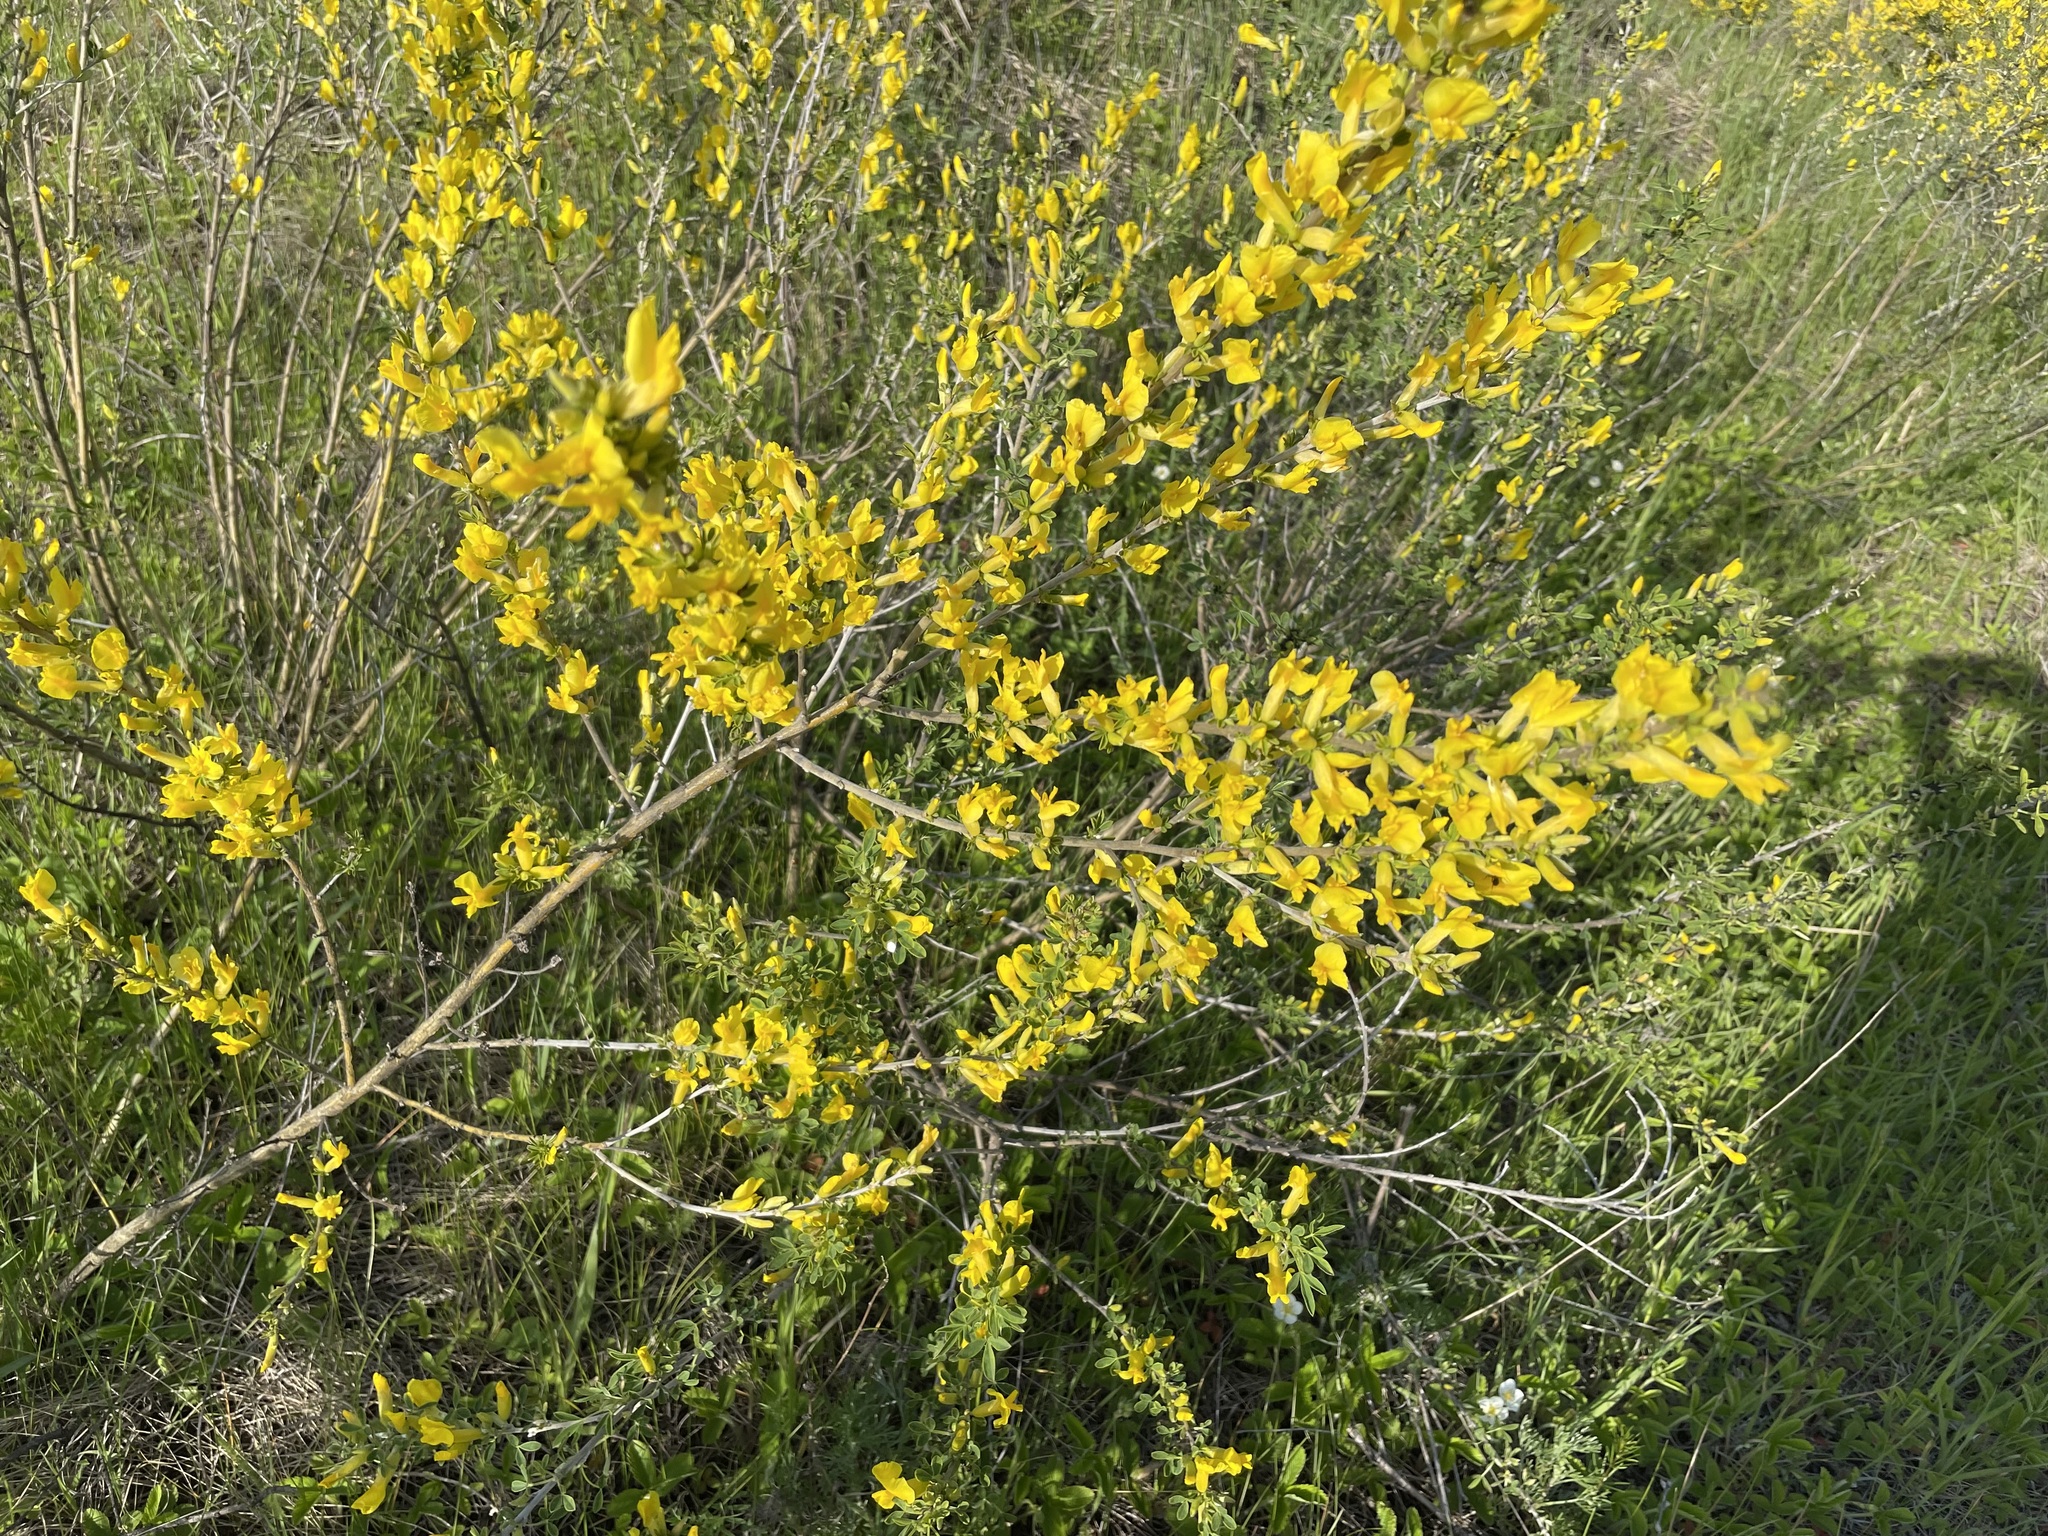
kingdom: Plantae
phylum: Tracheophyta
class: Magnoliopsida
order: Fabales
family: Fabaceae
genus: Chamaecytisus
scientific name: Chamaecytisus ruthenicus
